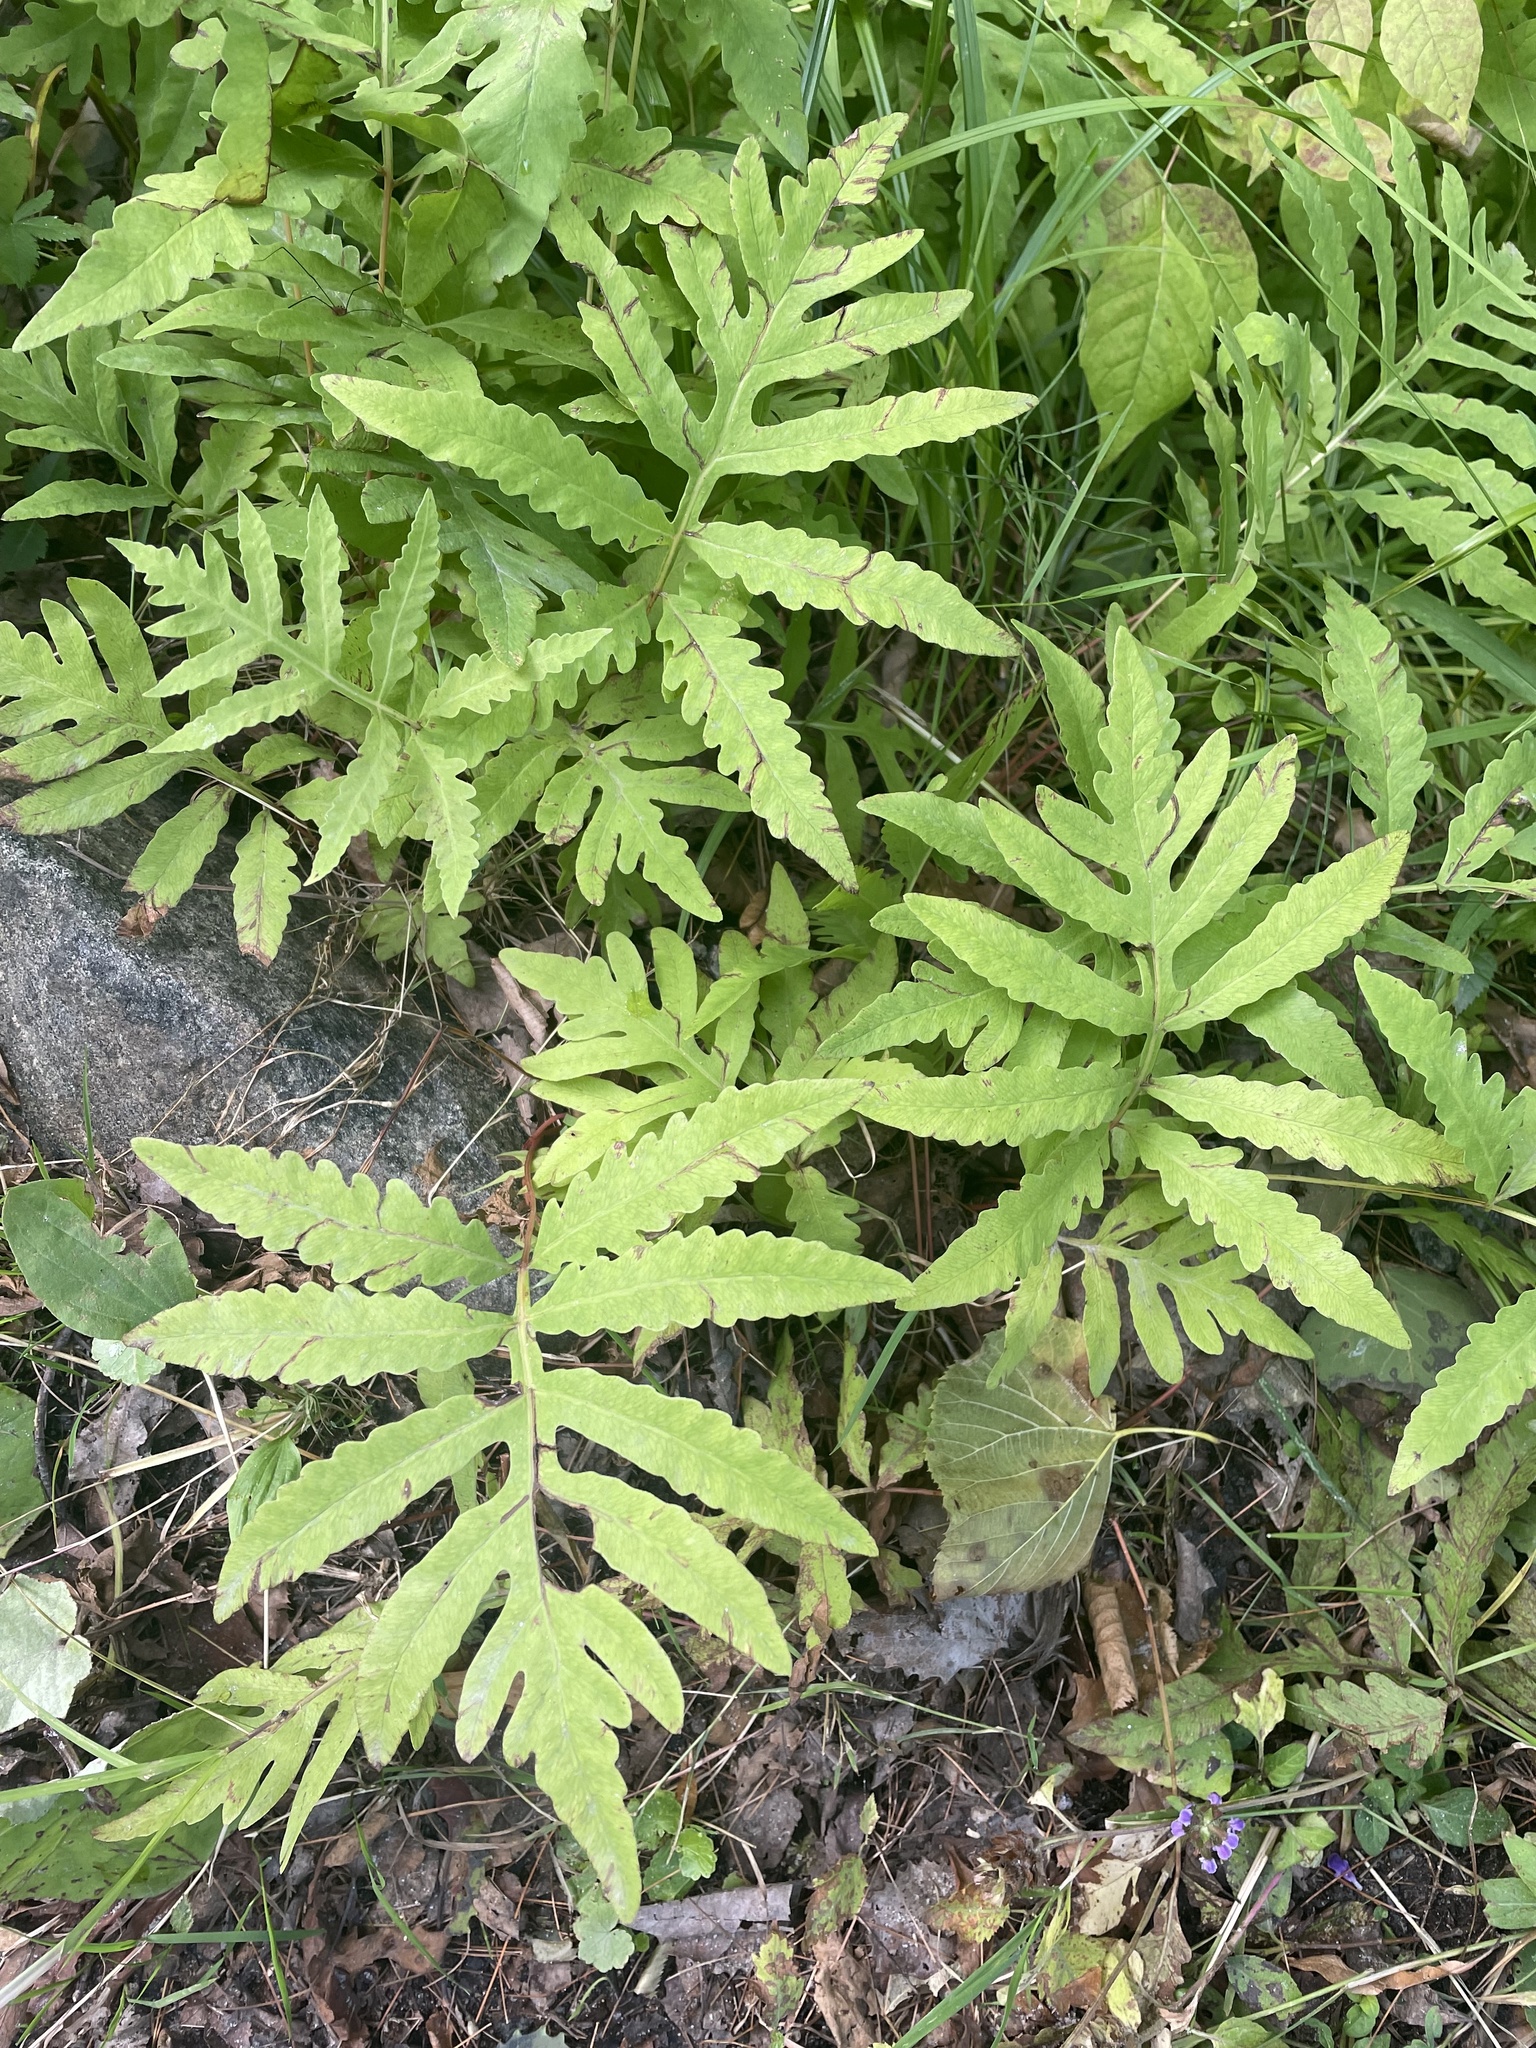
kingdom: Plantae
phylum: Tracheophyta
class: Polypodiopsida
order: Polypodiales
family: Onocleaceae
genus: Onoclea
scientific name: Onoclea sensibilis
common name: Sensitive fern
